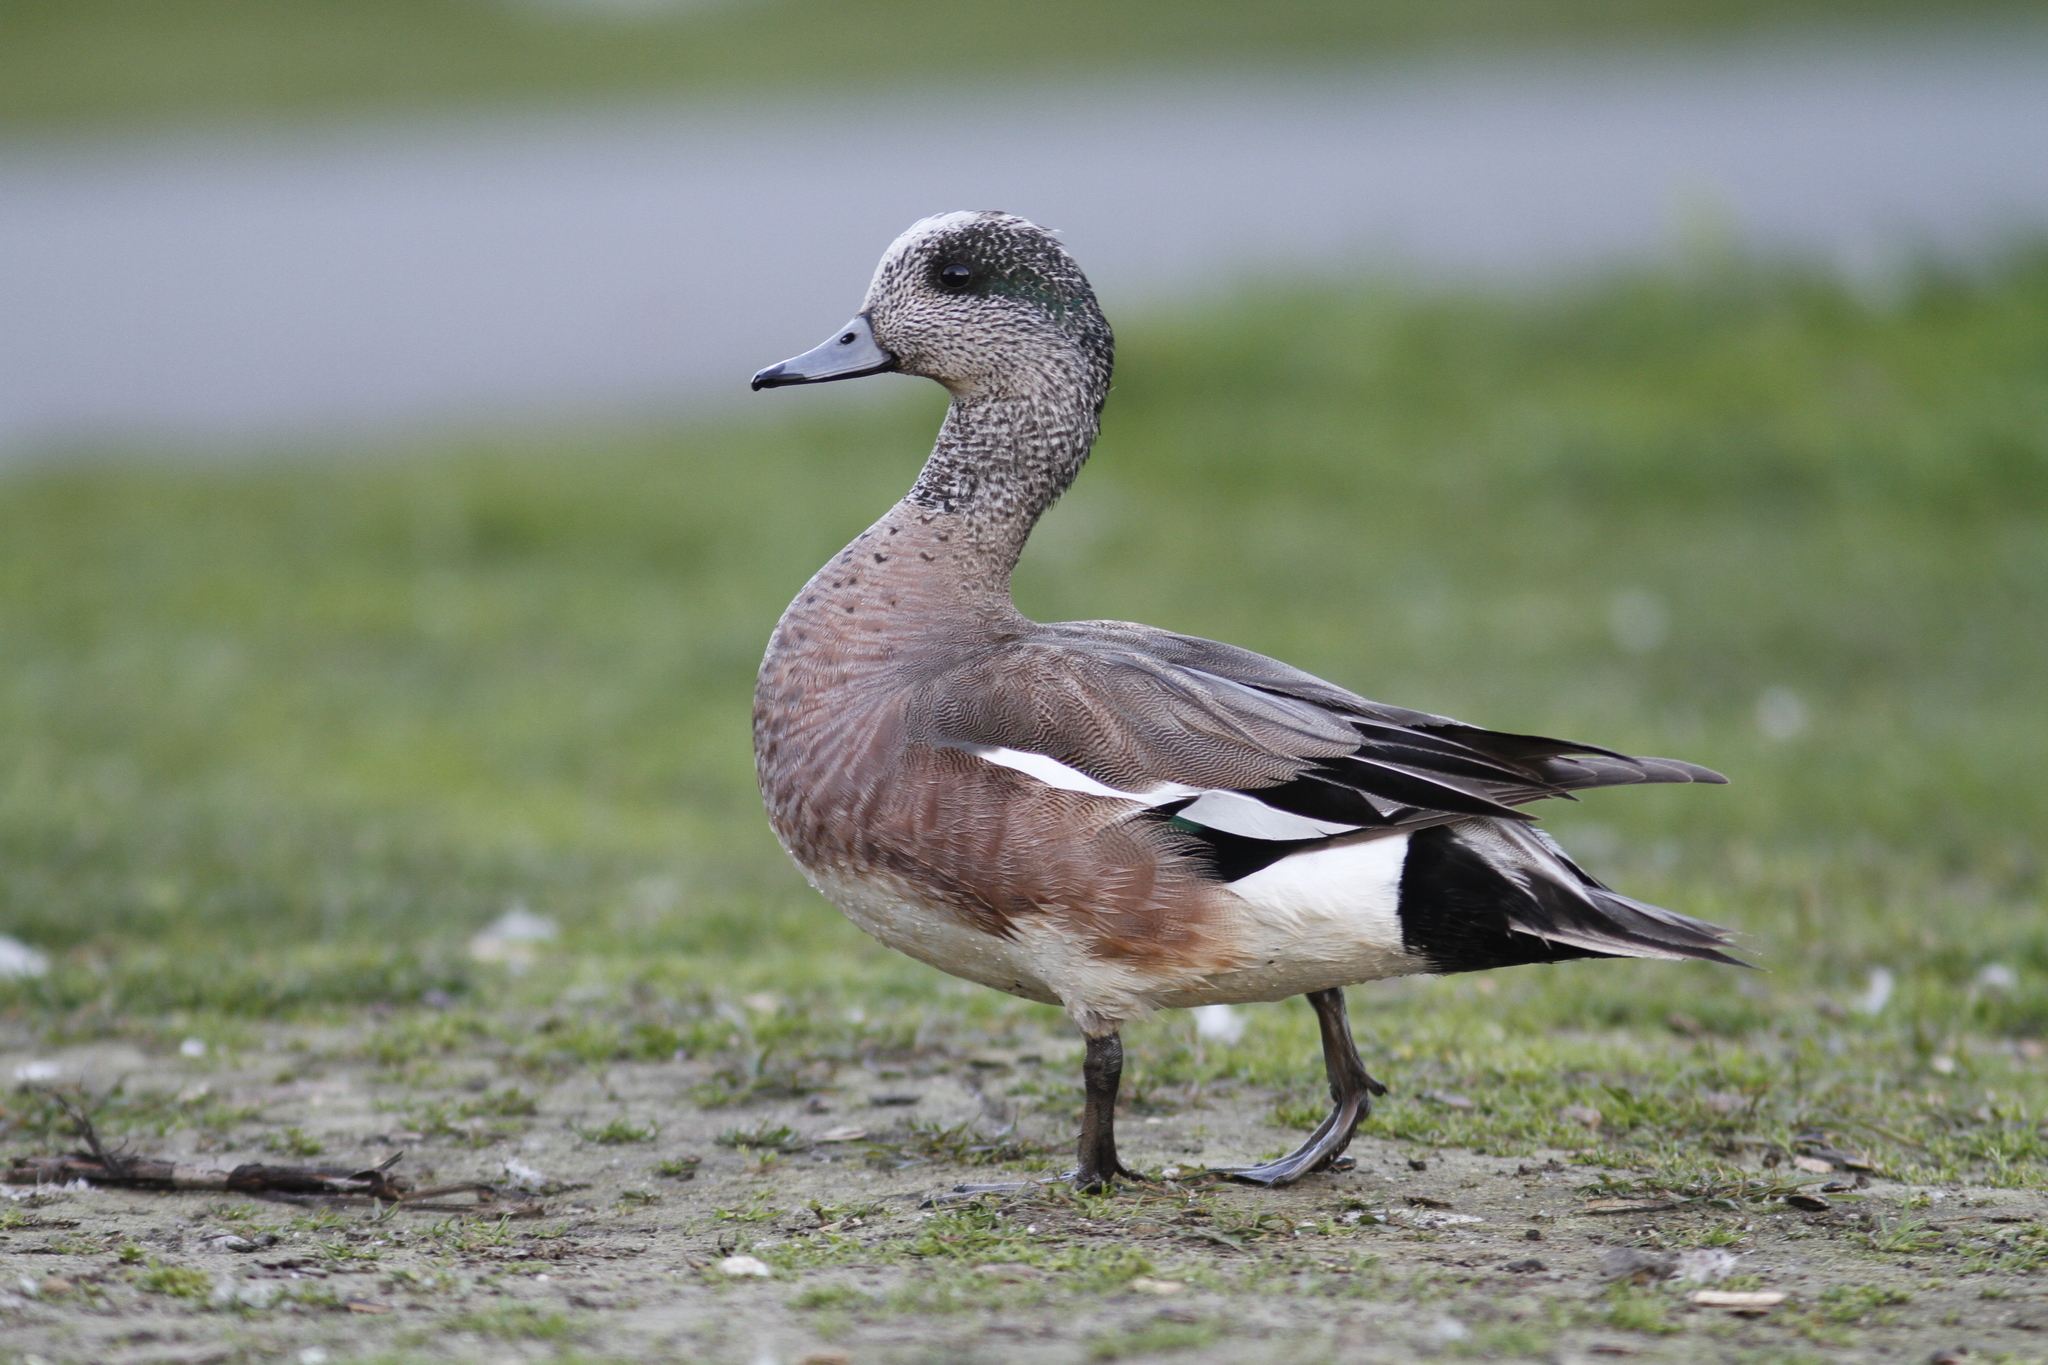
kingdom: Animalia
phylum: Chordata
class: Aves
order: Anseriformes
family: Anatidae
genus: Mareca
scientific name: Mareca americana
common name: American wigeon
